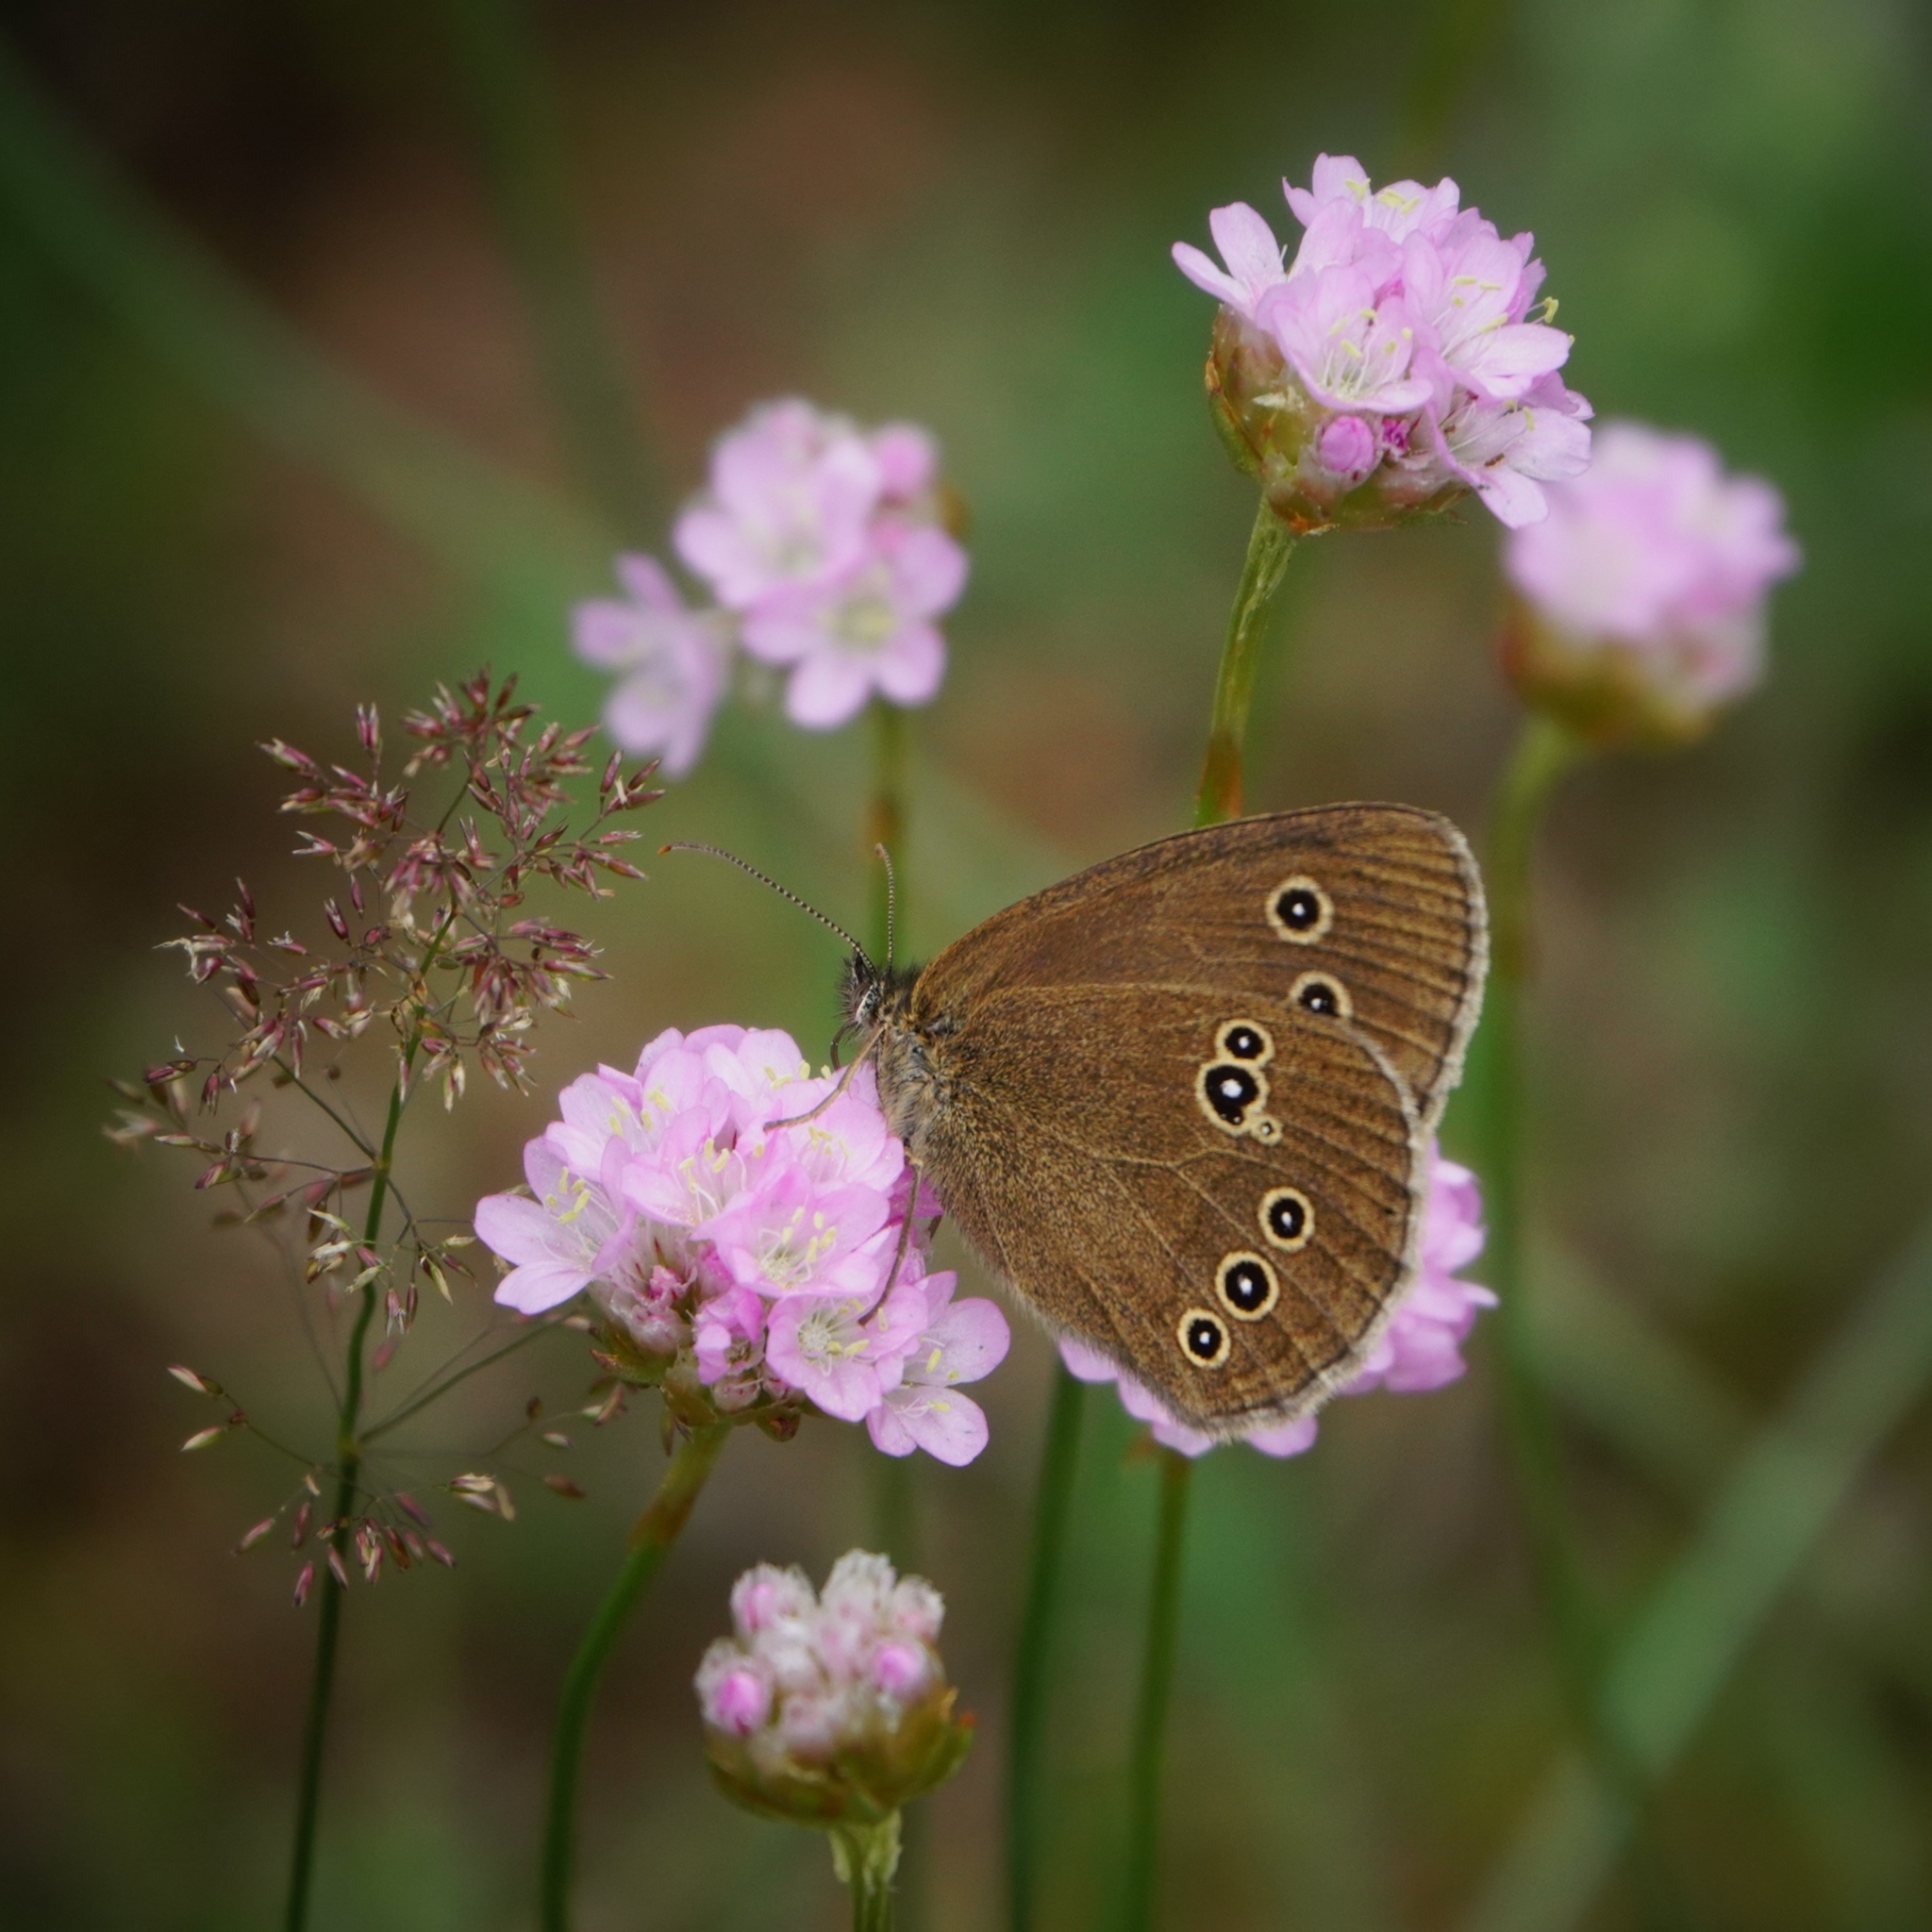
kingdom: Animalia
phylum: Arthropoda
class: Insecta
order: Lepidoptera
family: Nymphalidae
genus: Aphantopus
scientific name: Aphantopus hyperantus
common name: Ringlet
